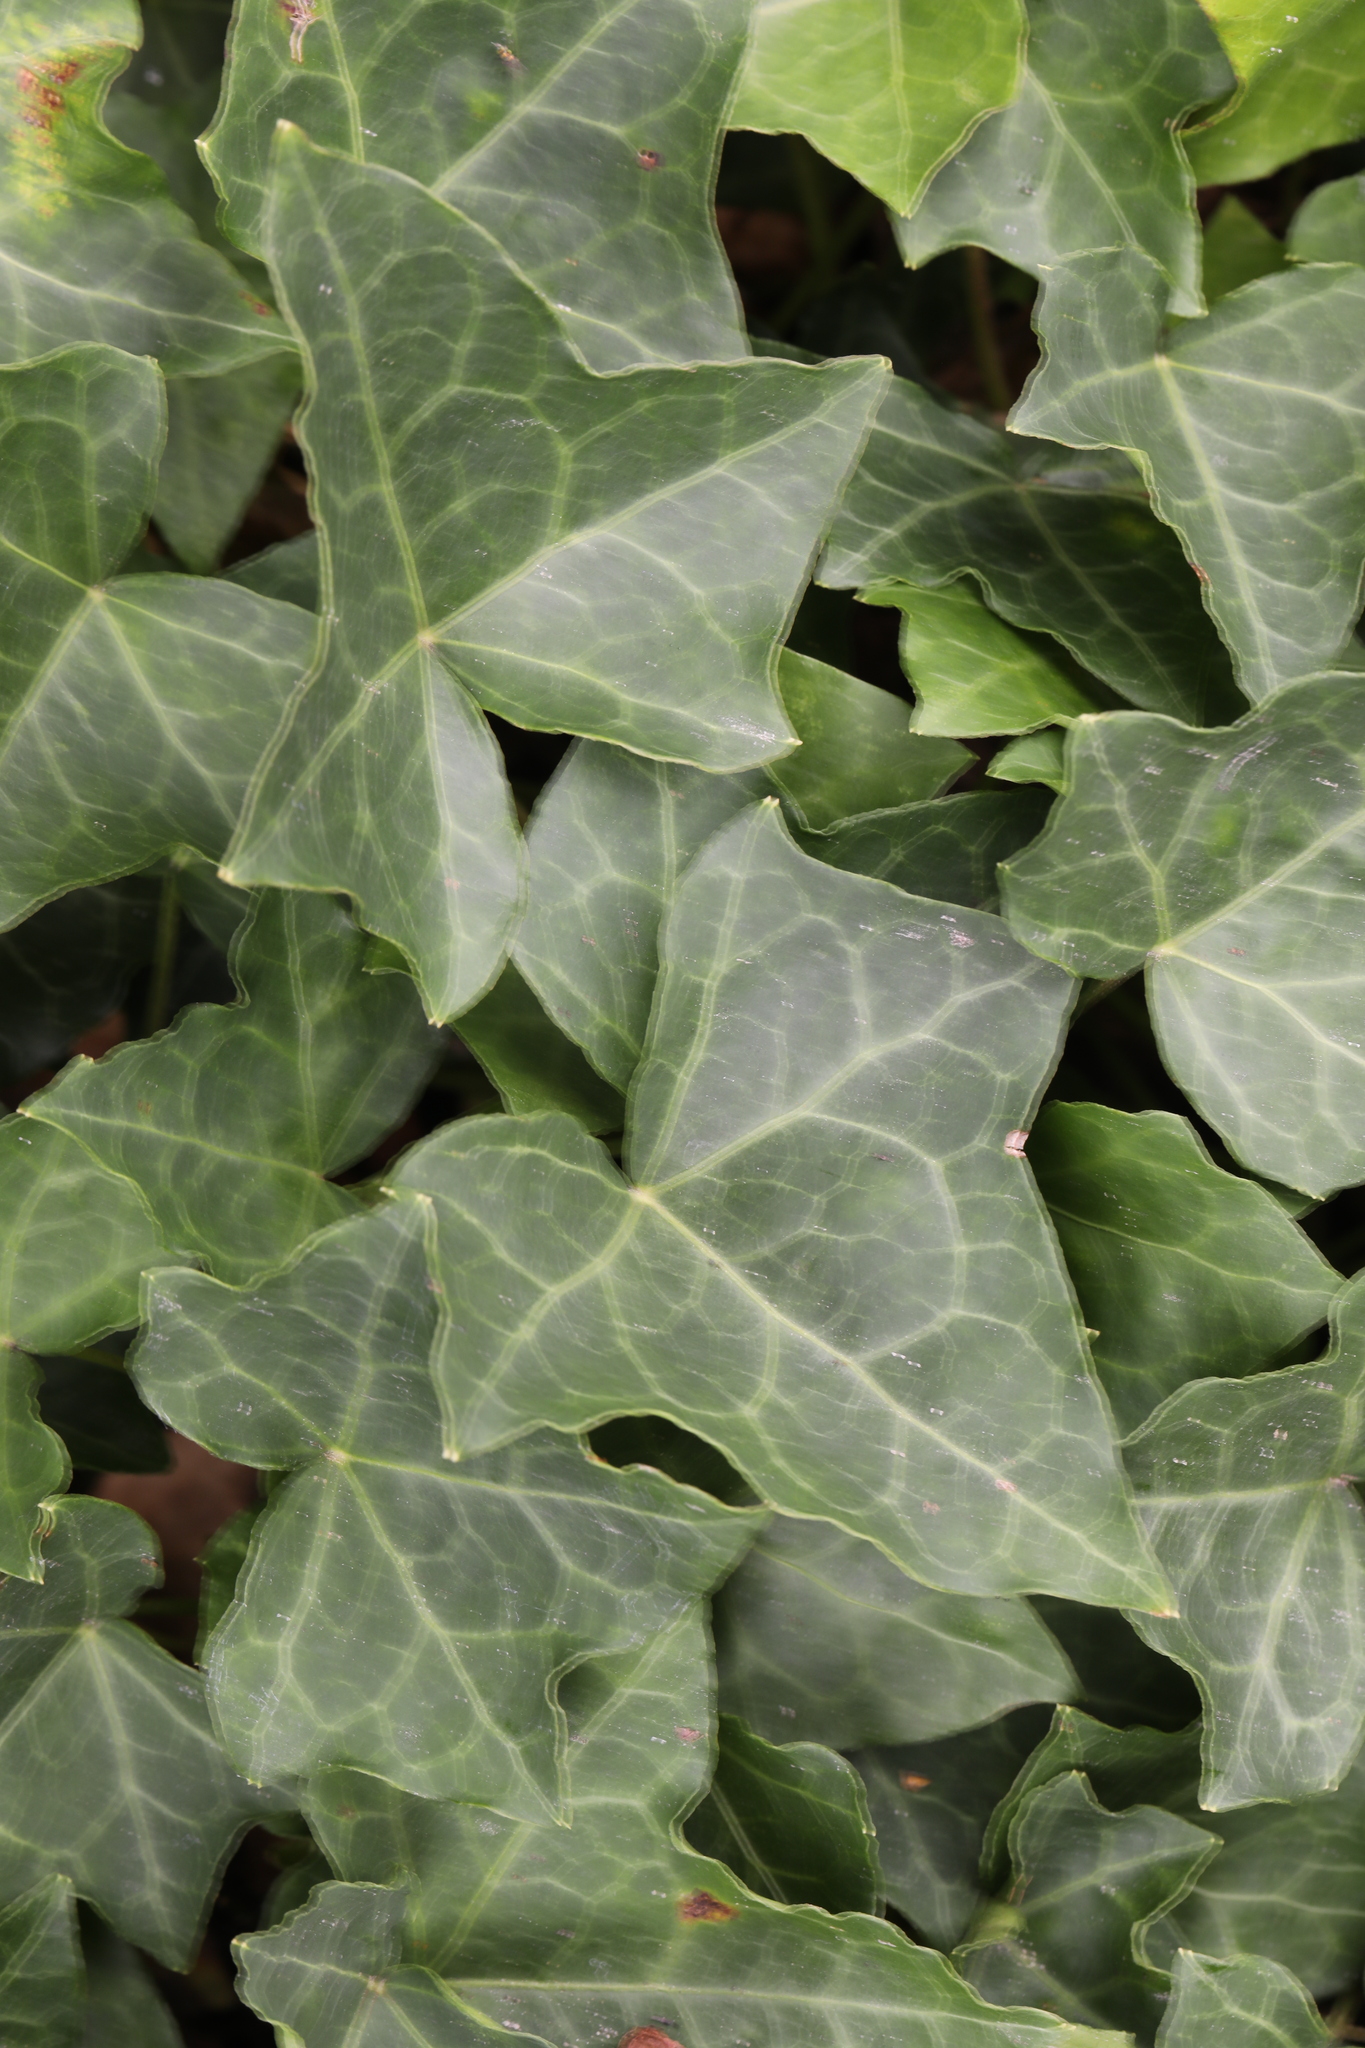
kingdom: Plantae
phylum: Tracheophyta
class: Magnoliopsida
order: Apiales
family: Araliaceae
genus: Hedera
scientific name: Hedera helix
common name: Ivy
